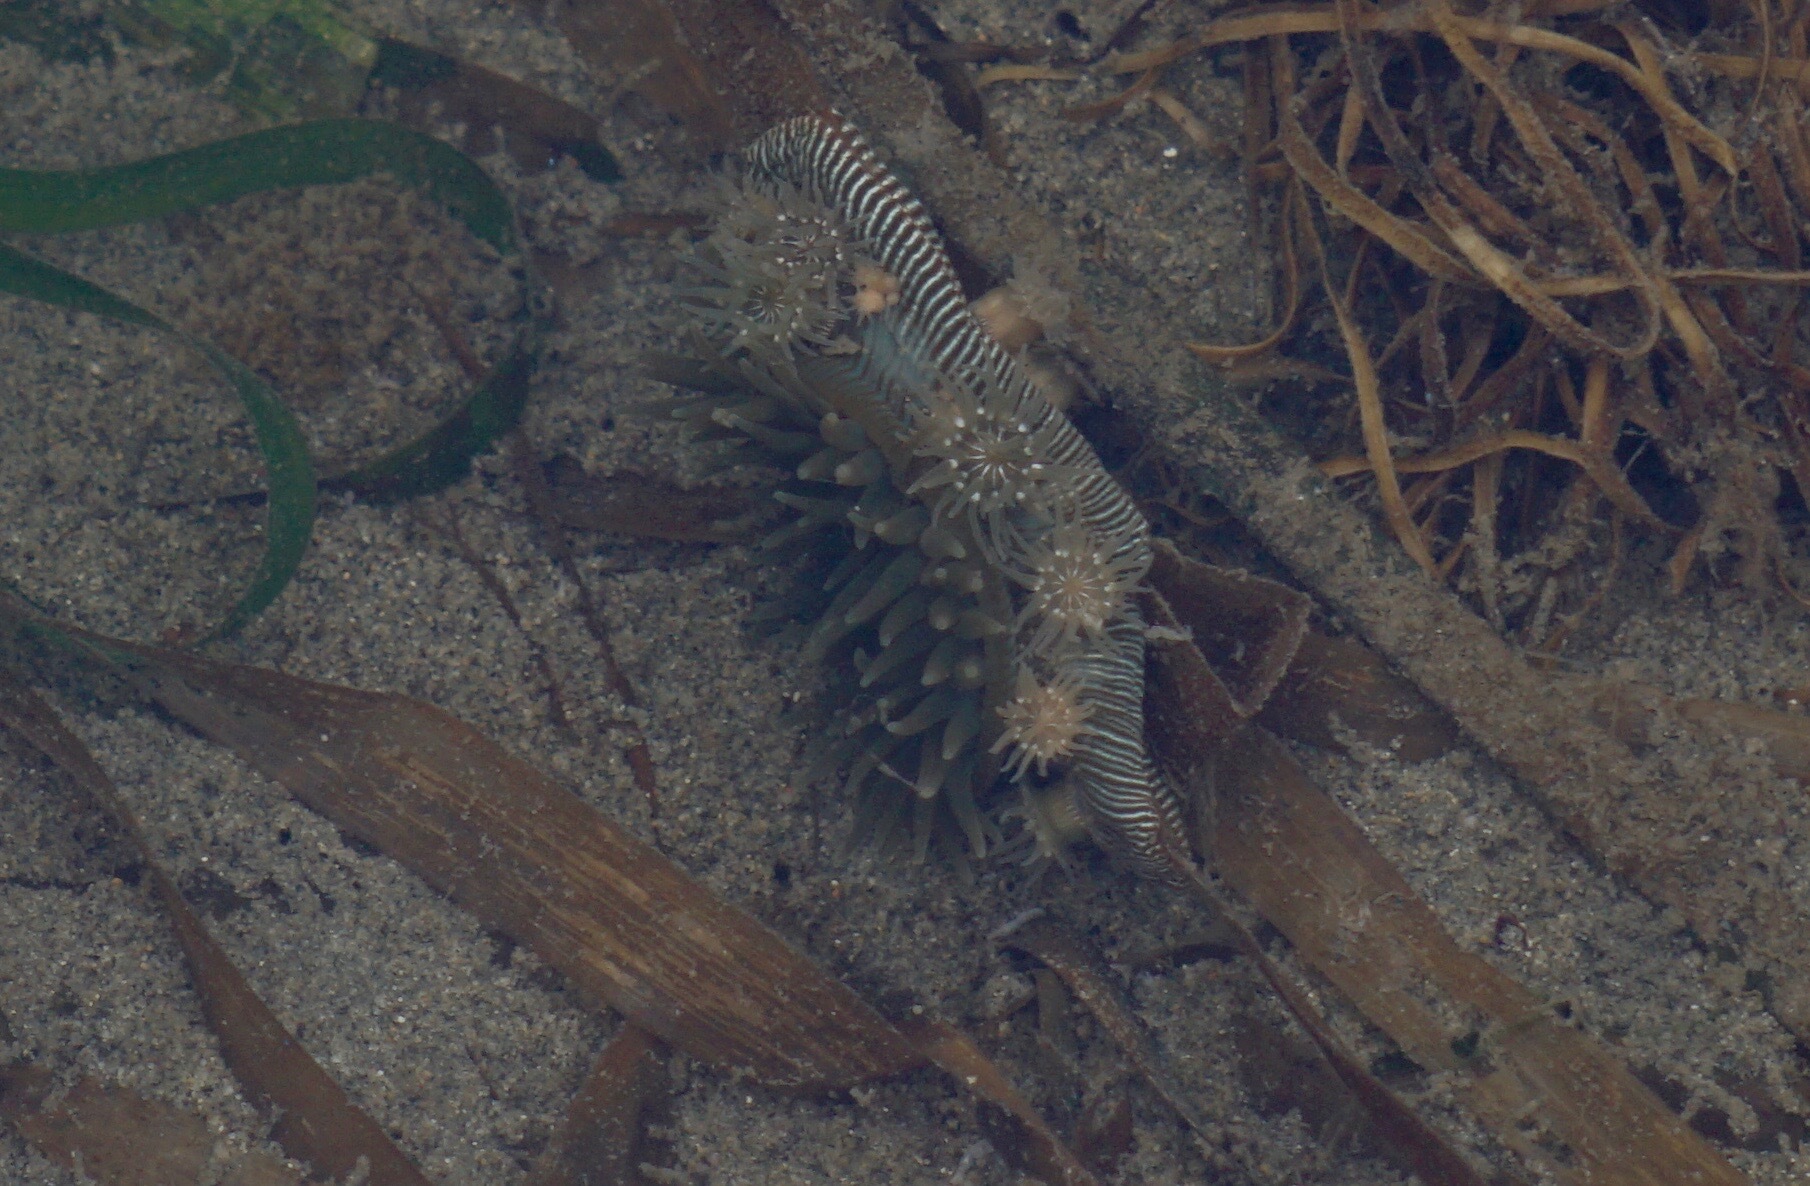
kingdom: Animalia
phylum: Cnidaria
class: Anthozoa
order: Actiniaria
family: Actiniidae
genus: Epiactis
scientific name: Epiactis prolifera
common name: Brooding anemone
